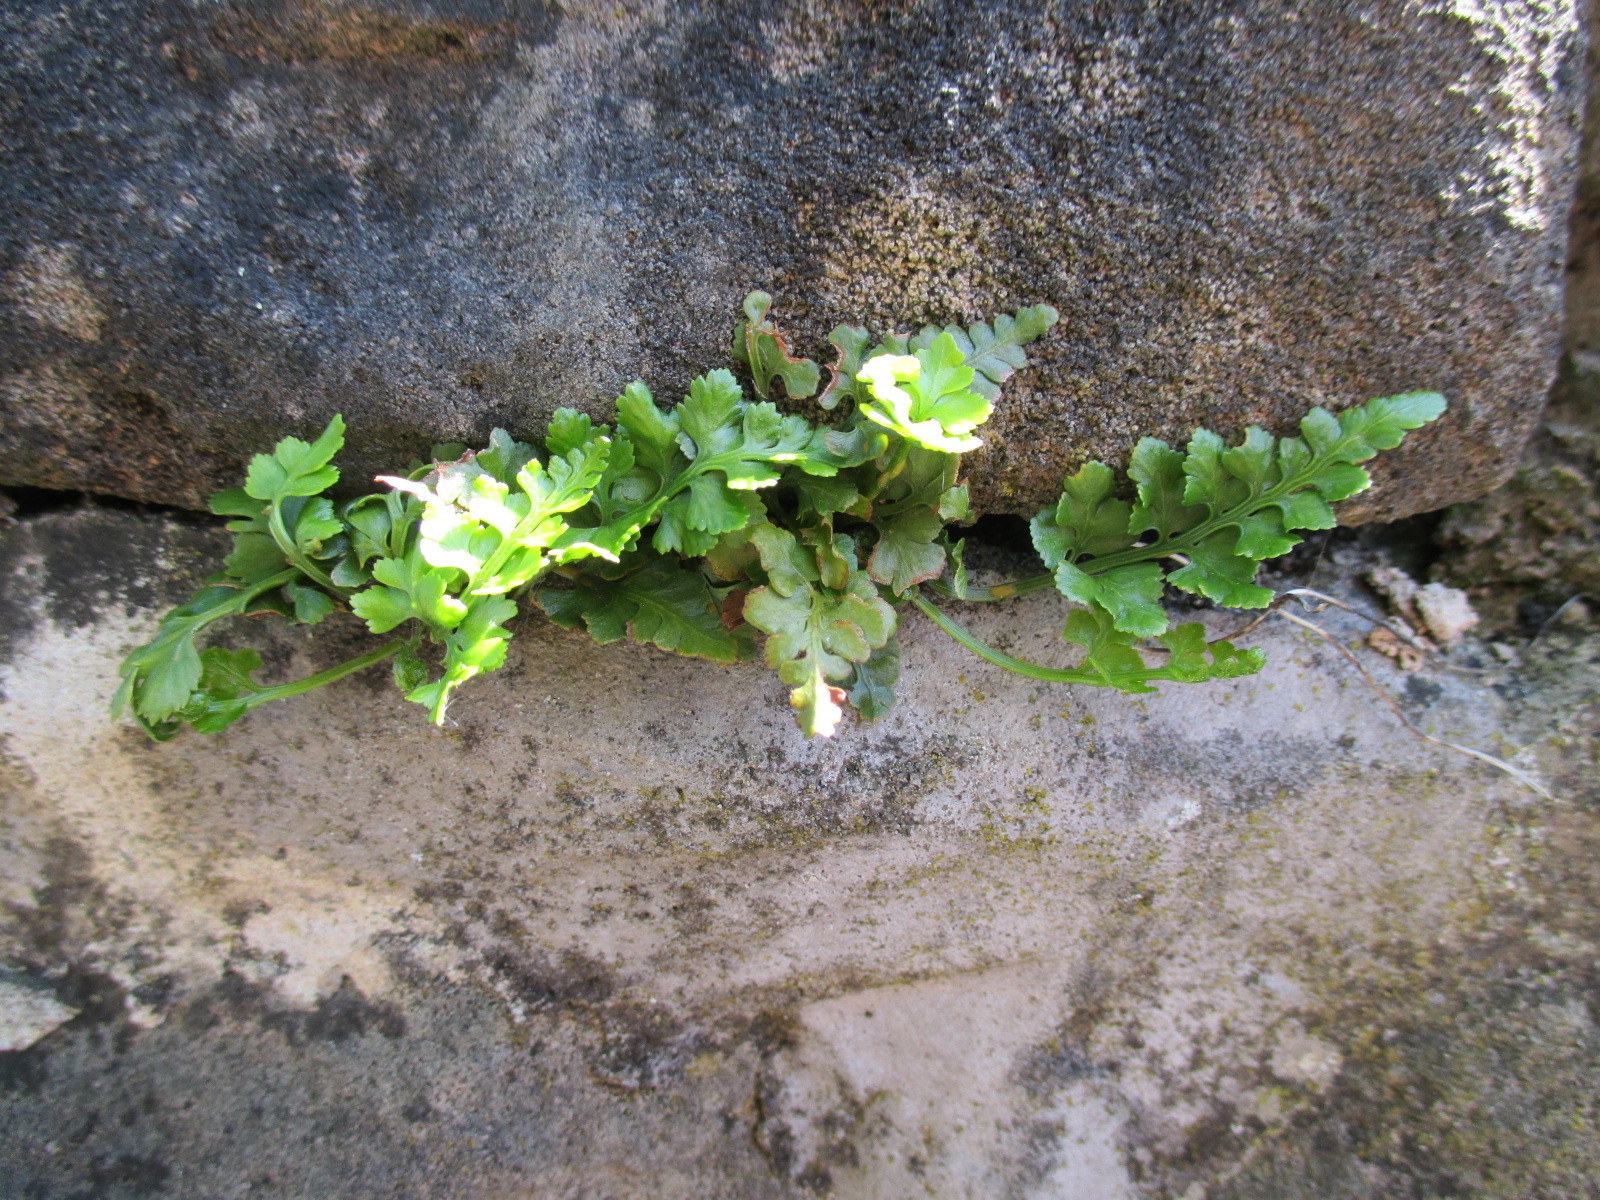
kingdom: Plantae
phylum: Tracheophyta
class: Polypodiopsida
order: Polypodiales
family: Aspleniaceae
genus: Asplenium
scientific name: Asplenium adiantum-nigrum
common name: Black spleenwort
